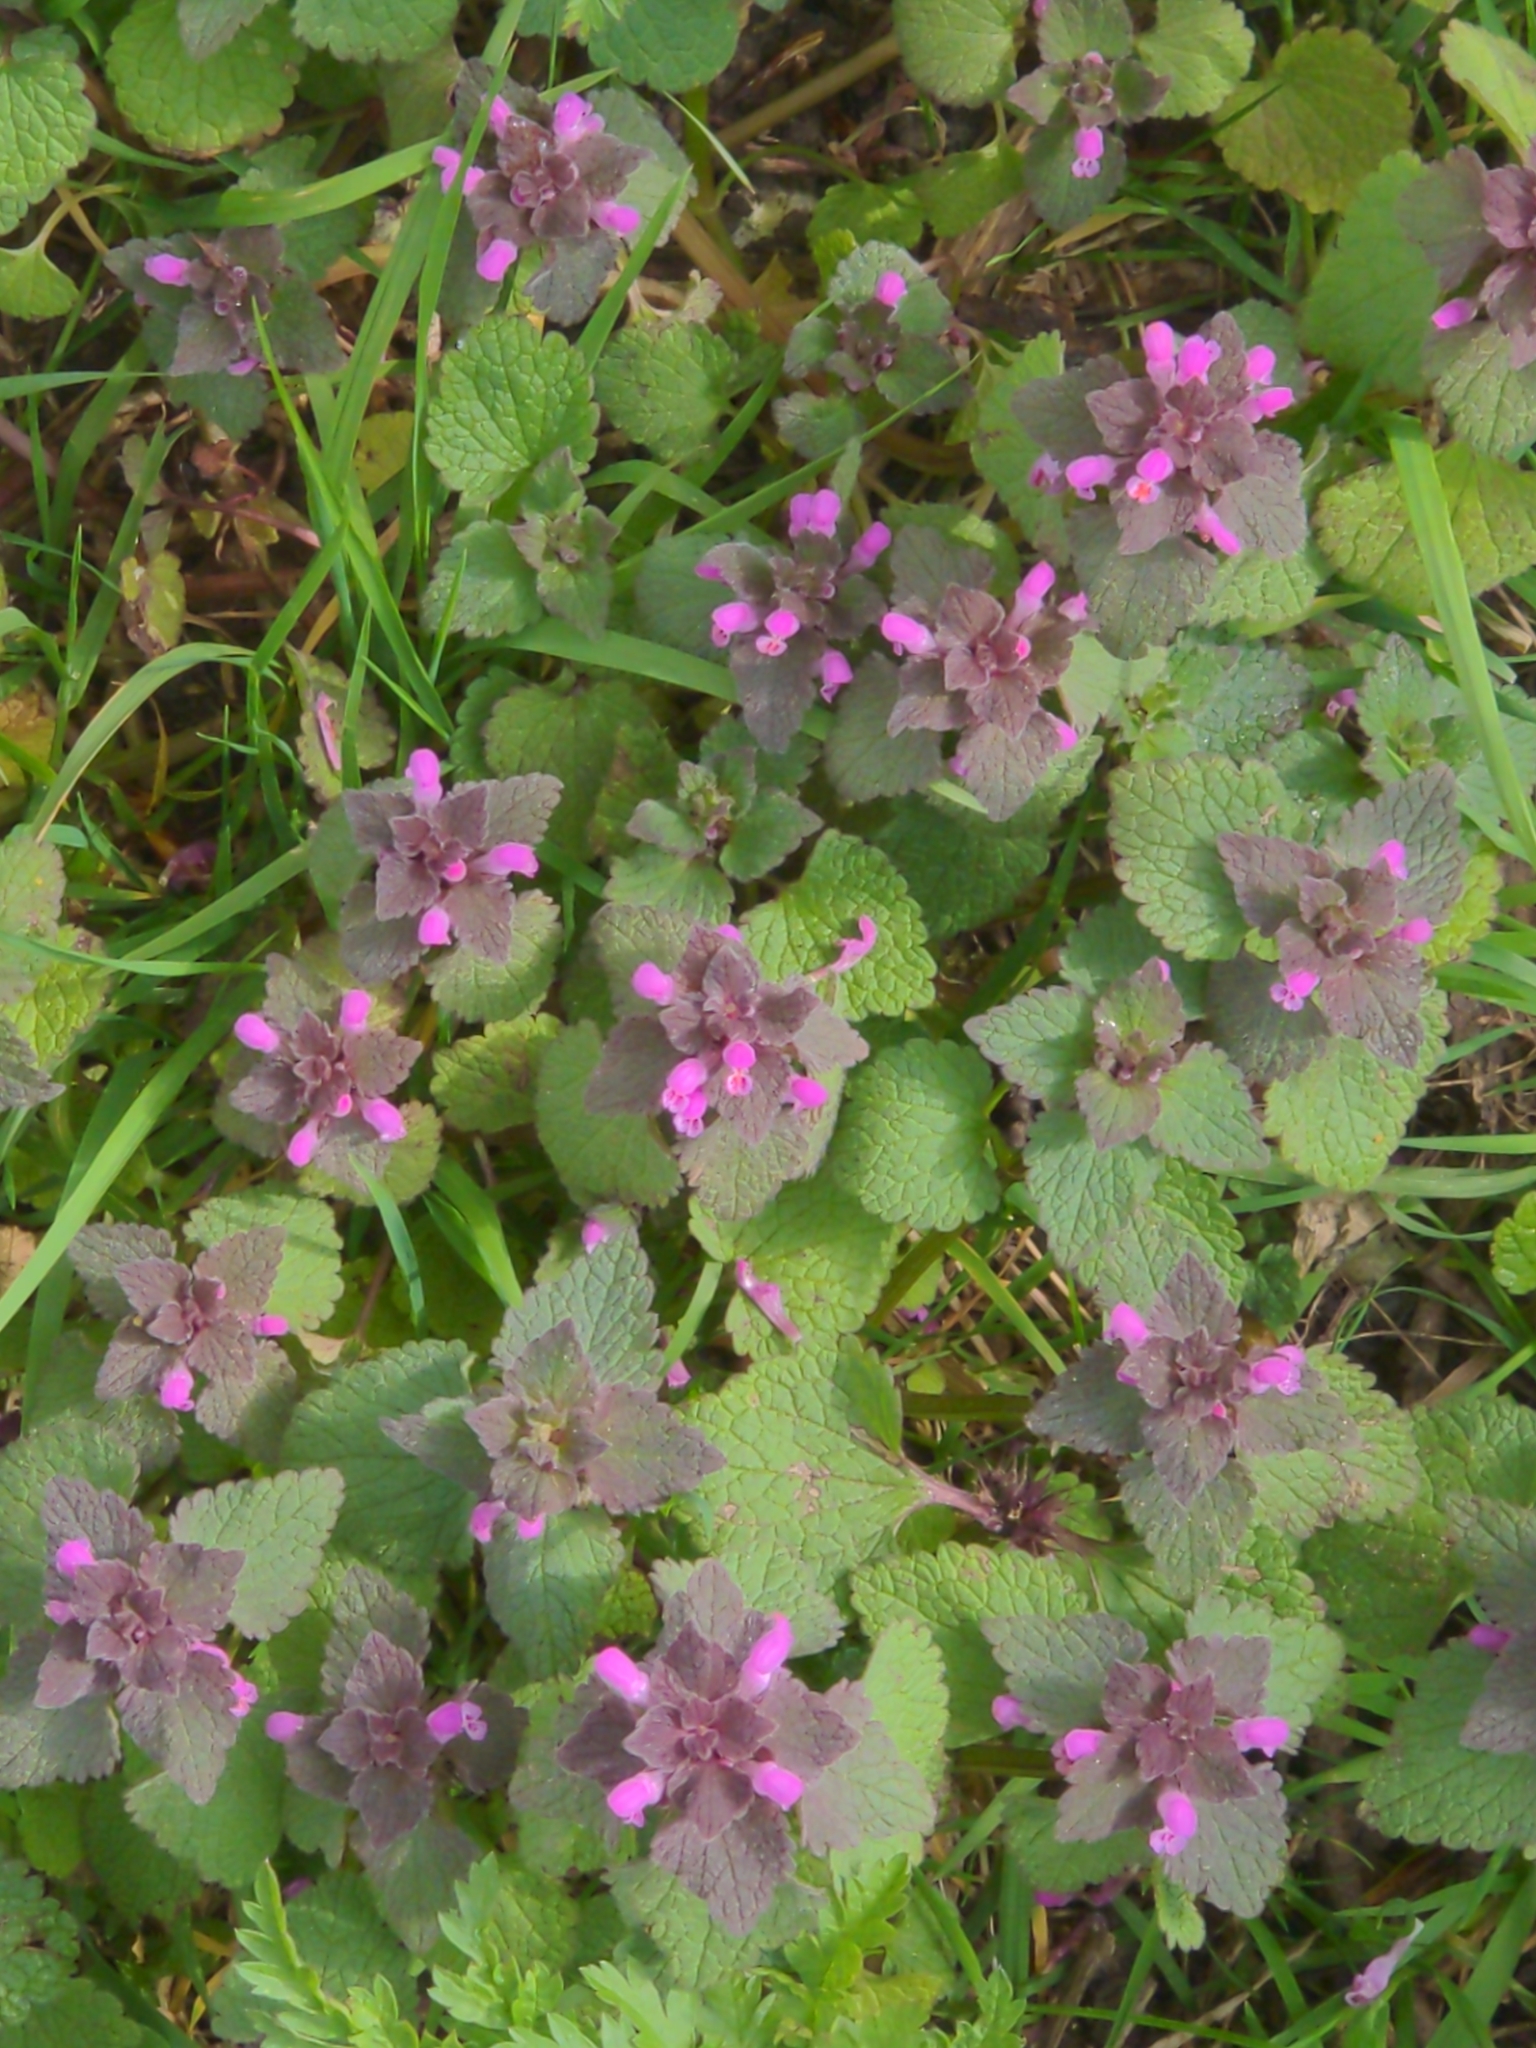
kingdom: Plantae
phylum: Tracheophyta
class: Magnoliopsida
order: Lamiales
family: Lamiaceae
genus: Lamium
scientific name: Lamium purpureum
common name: Red dead-nettle
